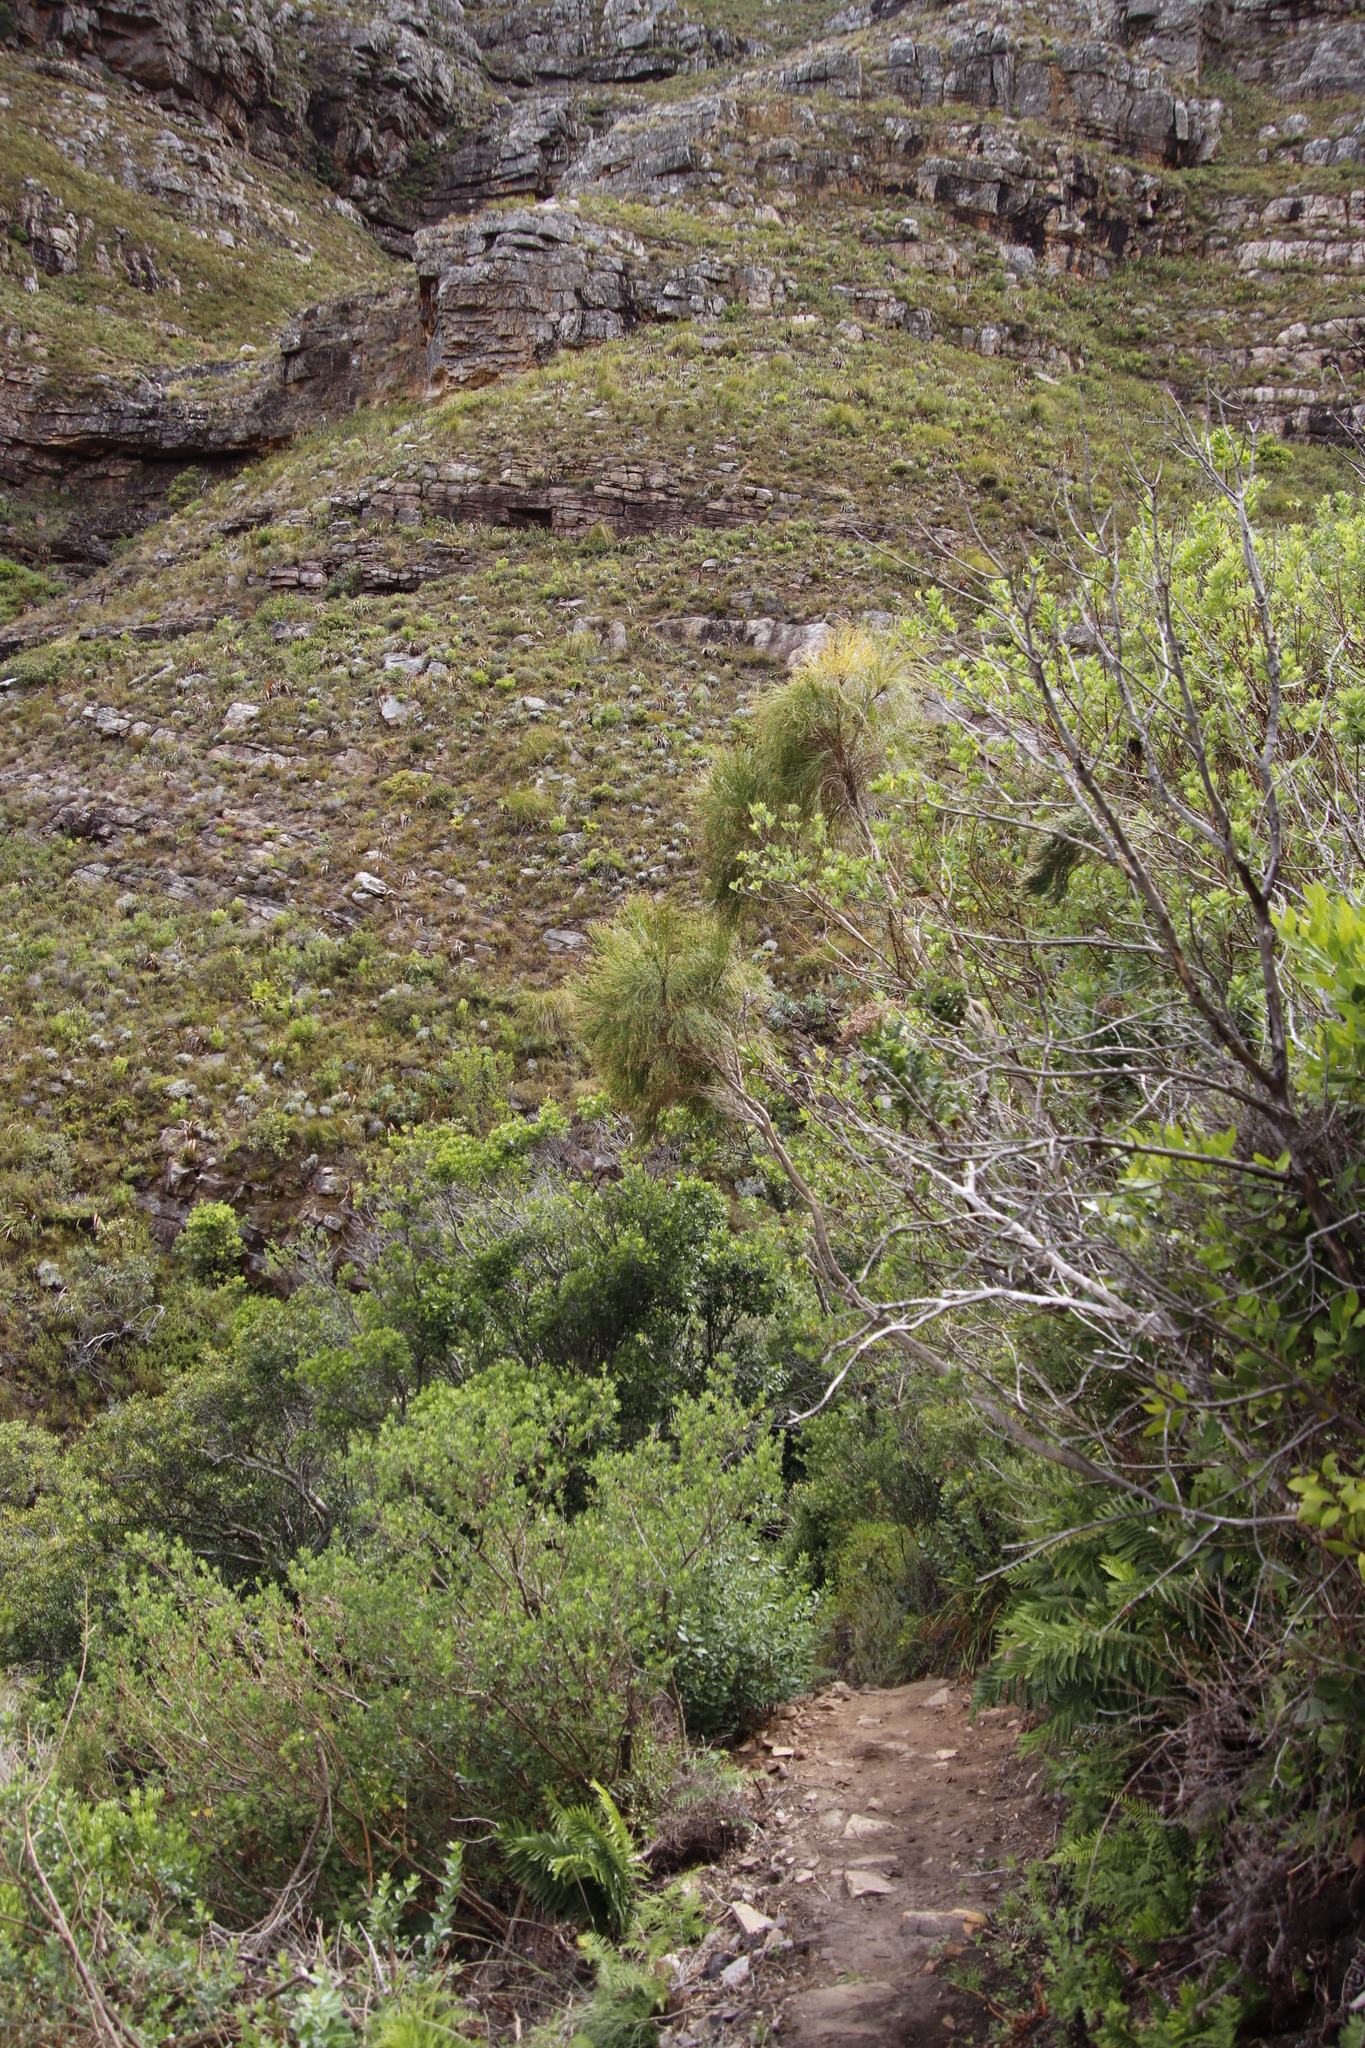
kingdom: Plantae
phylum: Tracheophyta
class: Magnoliopsida
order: Fabales
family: Fabaceae
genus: Psoralea
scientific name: Psoralea aphylla
